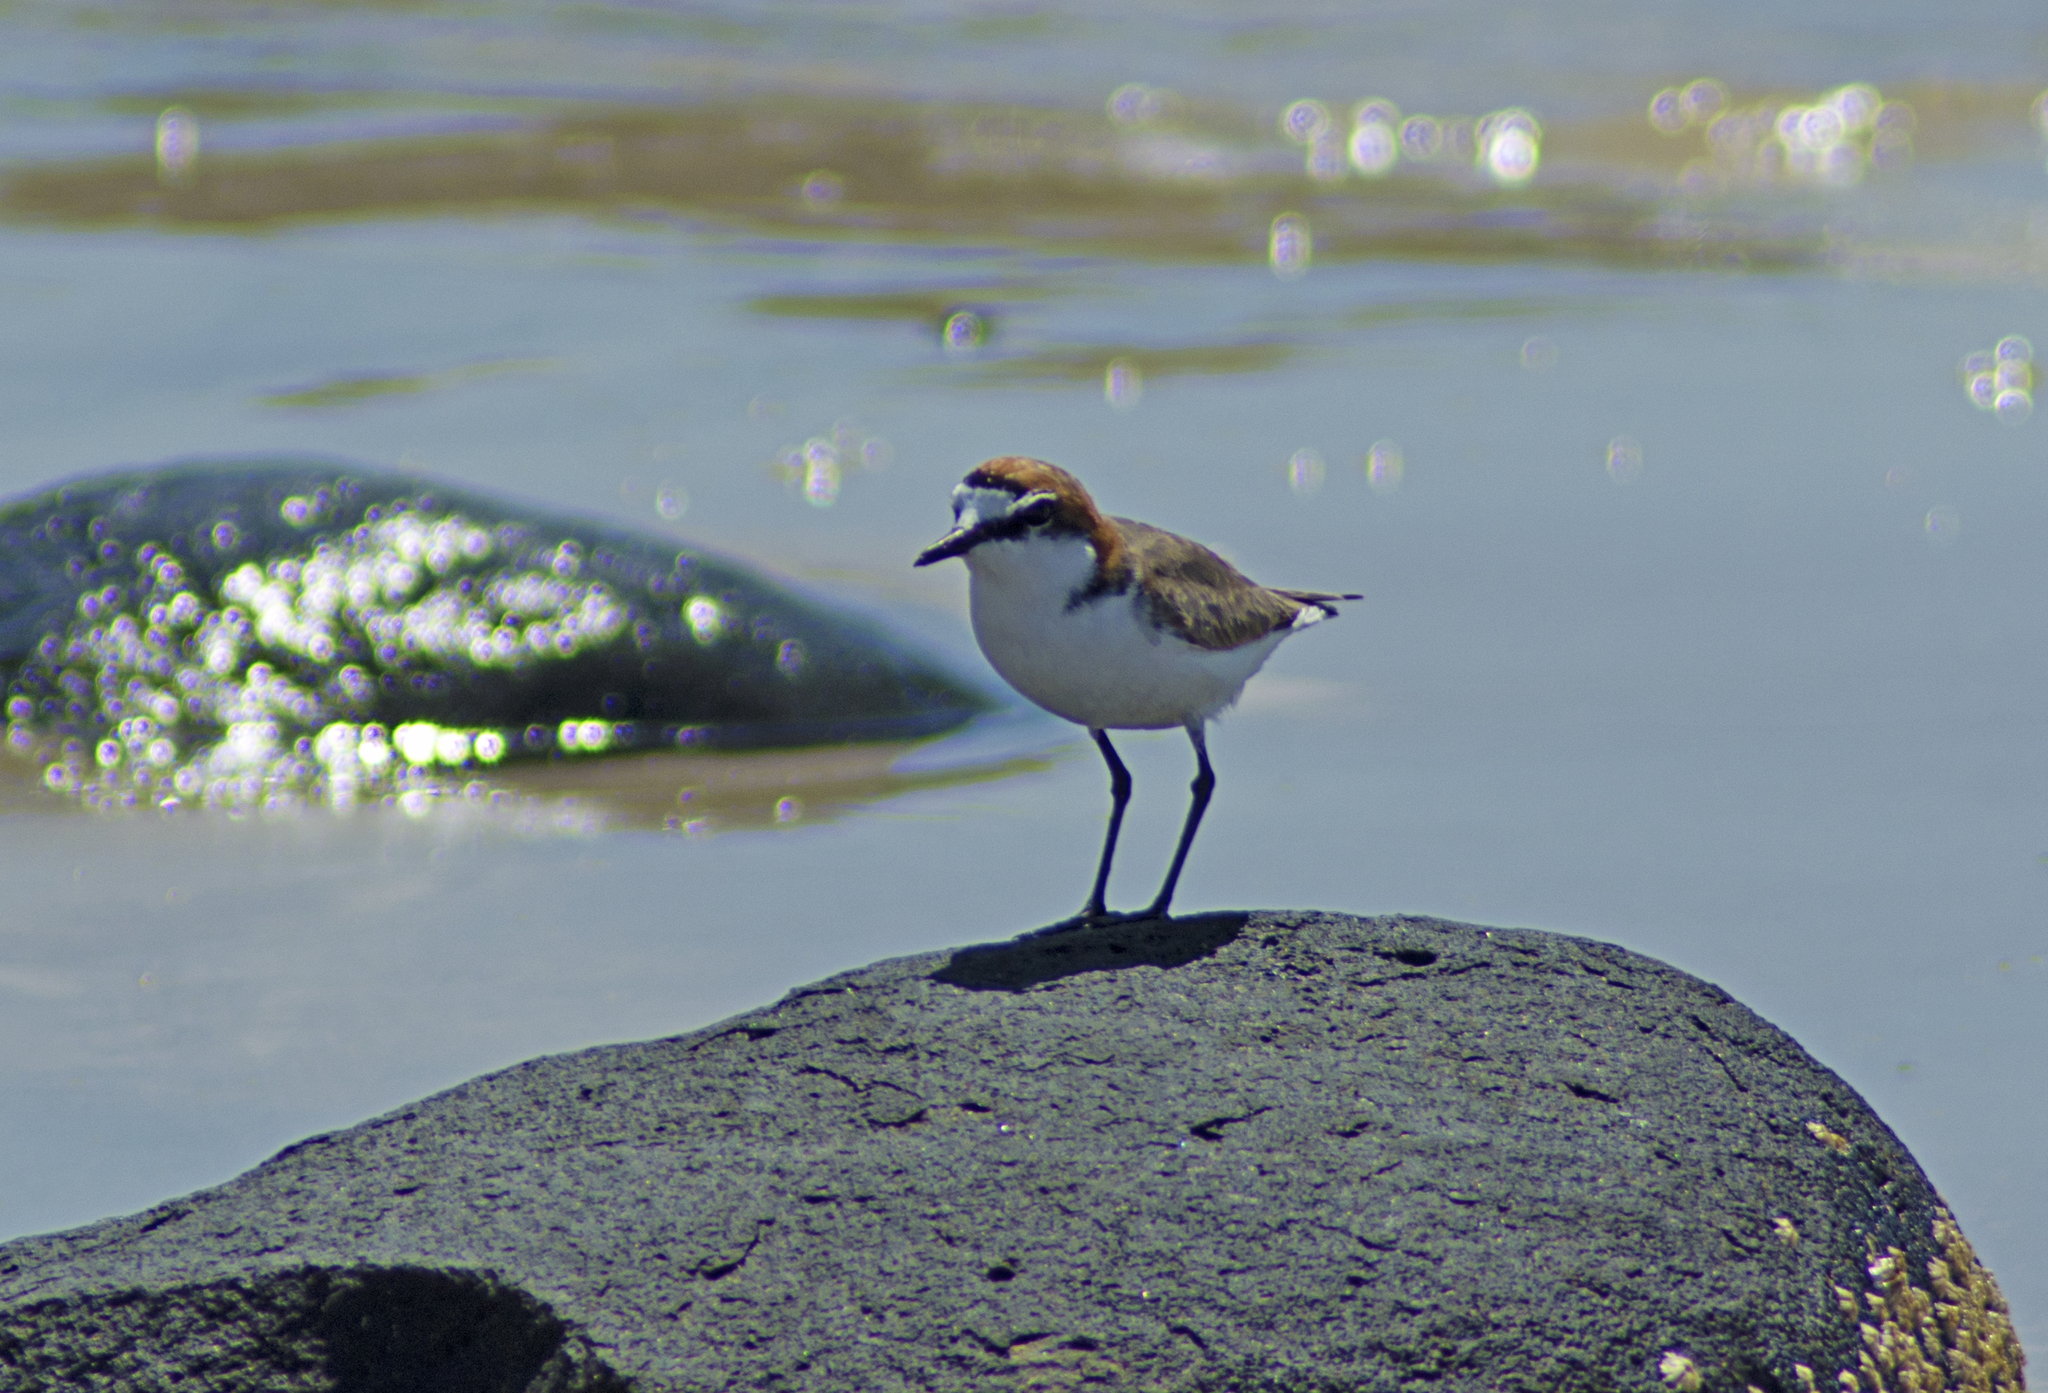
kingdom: Animalia
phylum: Chordata
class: Aves
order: Charadriiformes
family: Charadriidae
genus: Anarhynchus
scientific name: Anarhynchus
